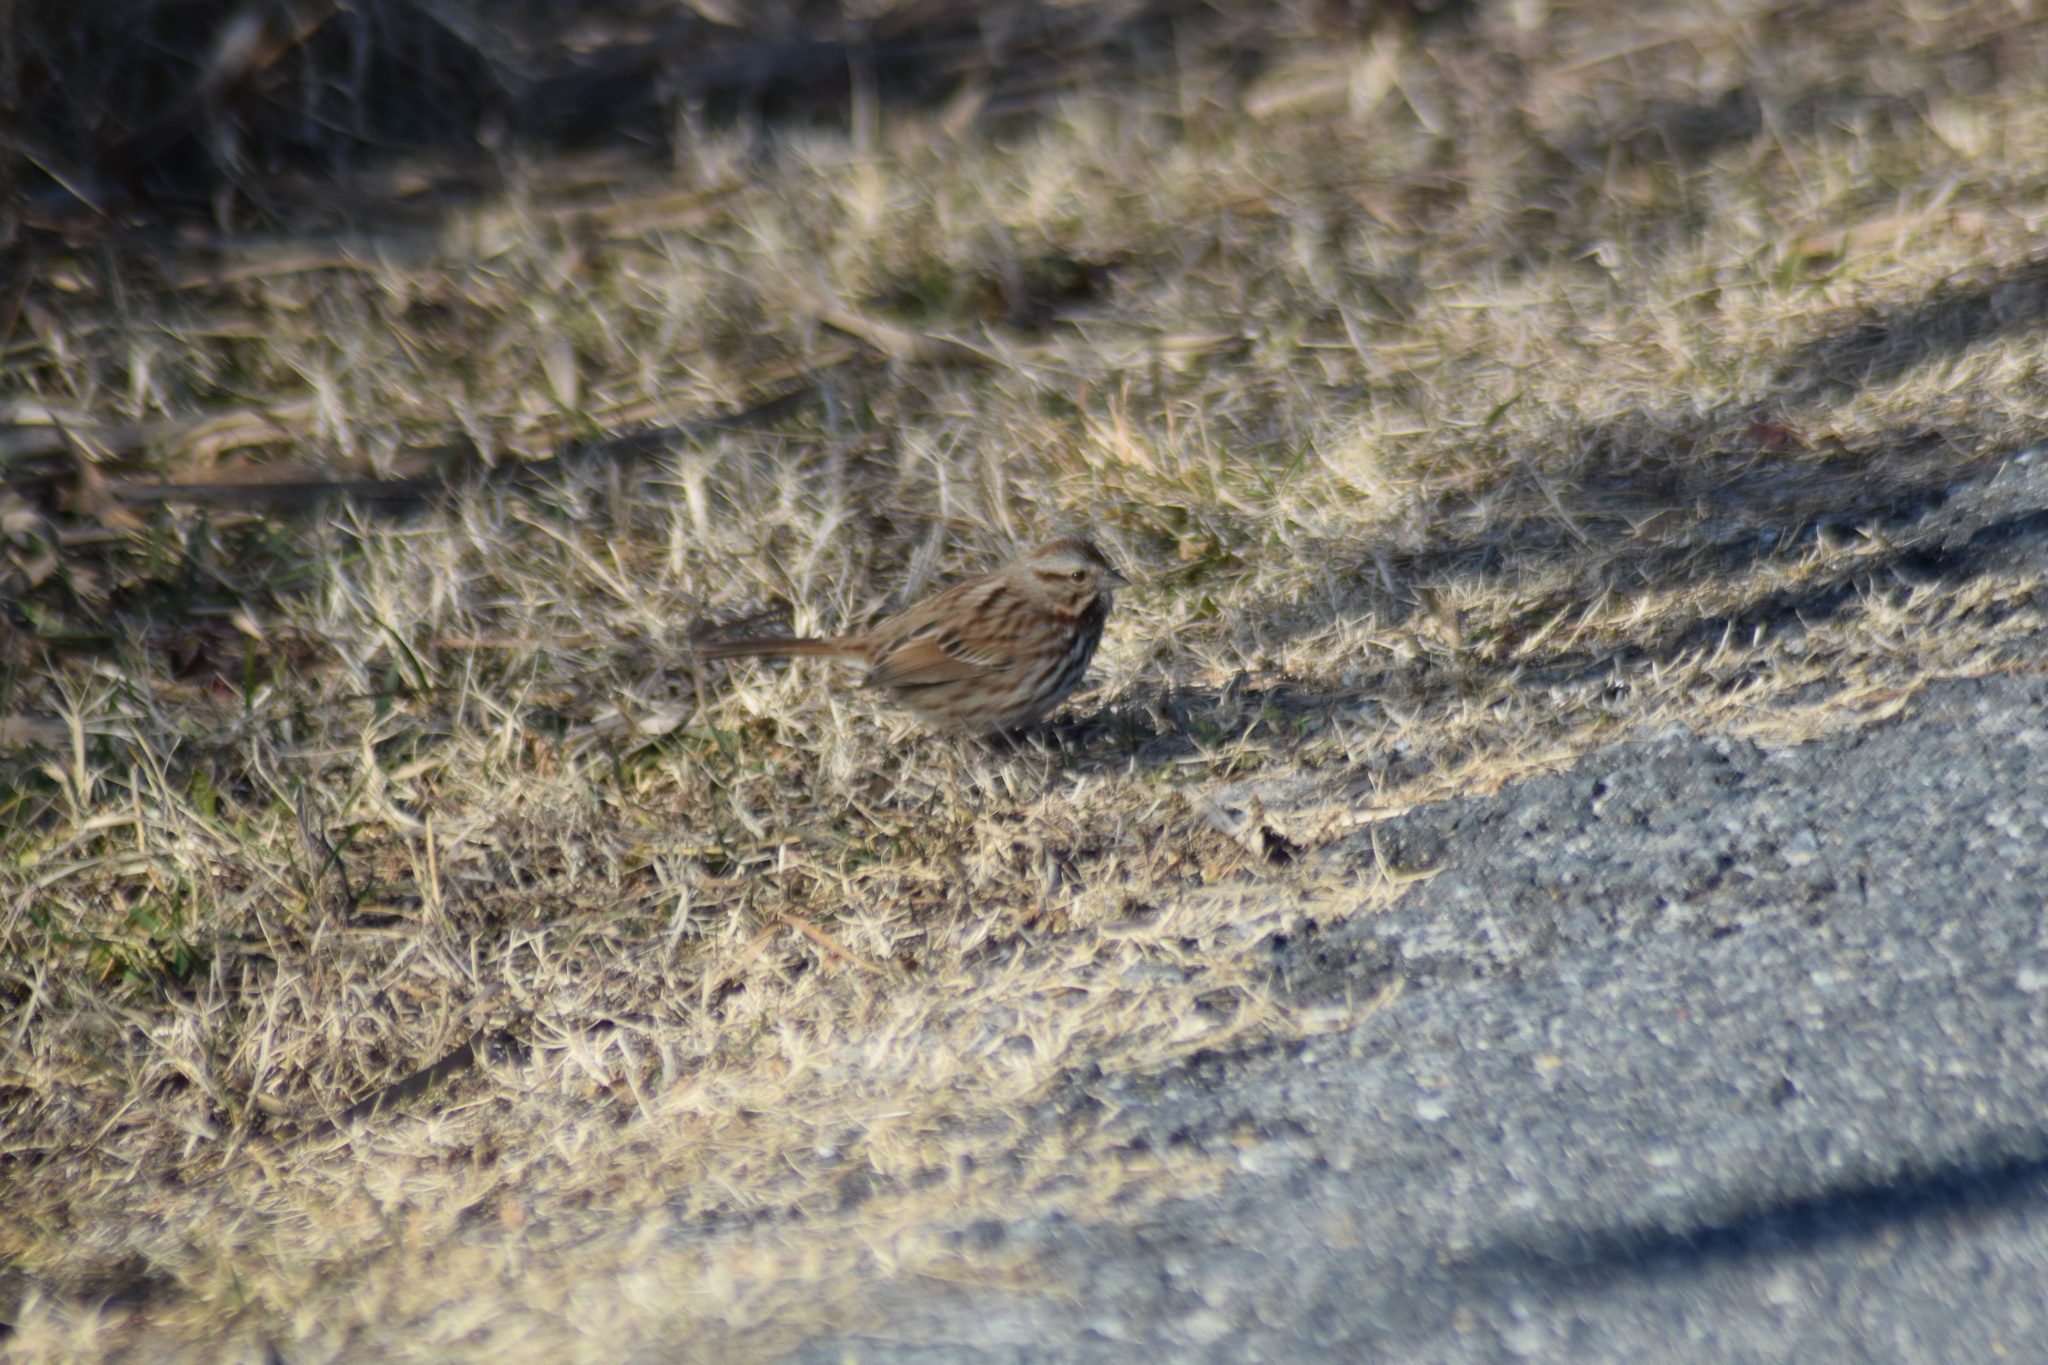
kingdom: Animalia
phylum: Chordata
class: Aves
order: Passeriformes
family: Passerellidae
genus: Melospiza
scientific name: Melospiza melodia
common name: Song sparrow
